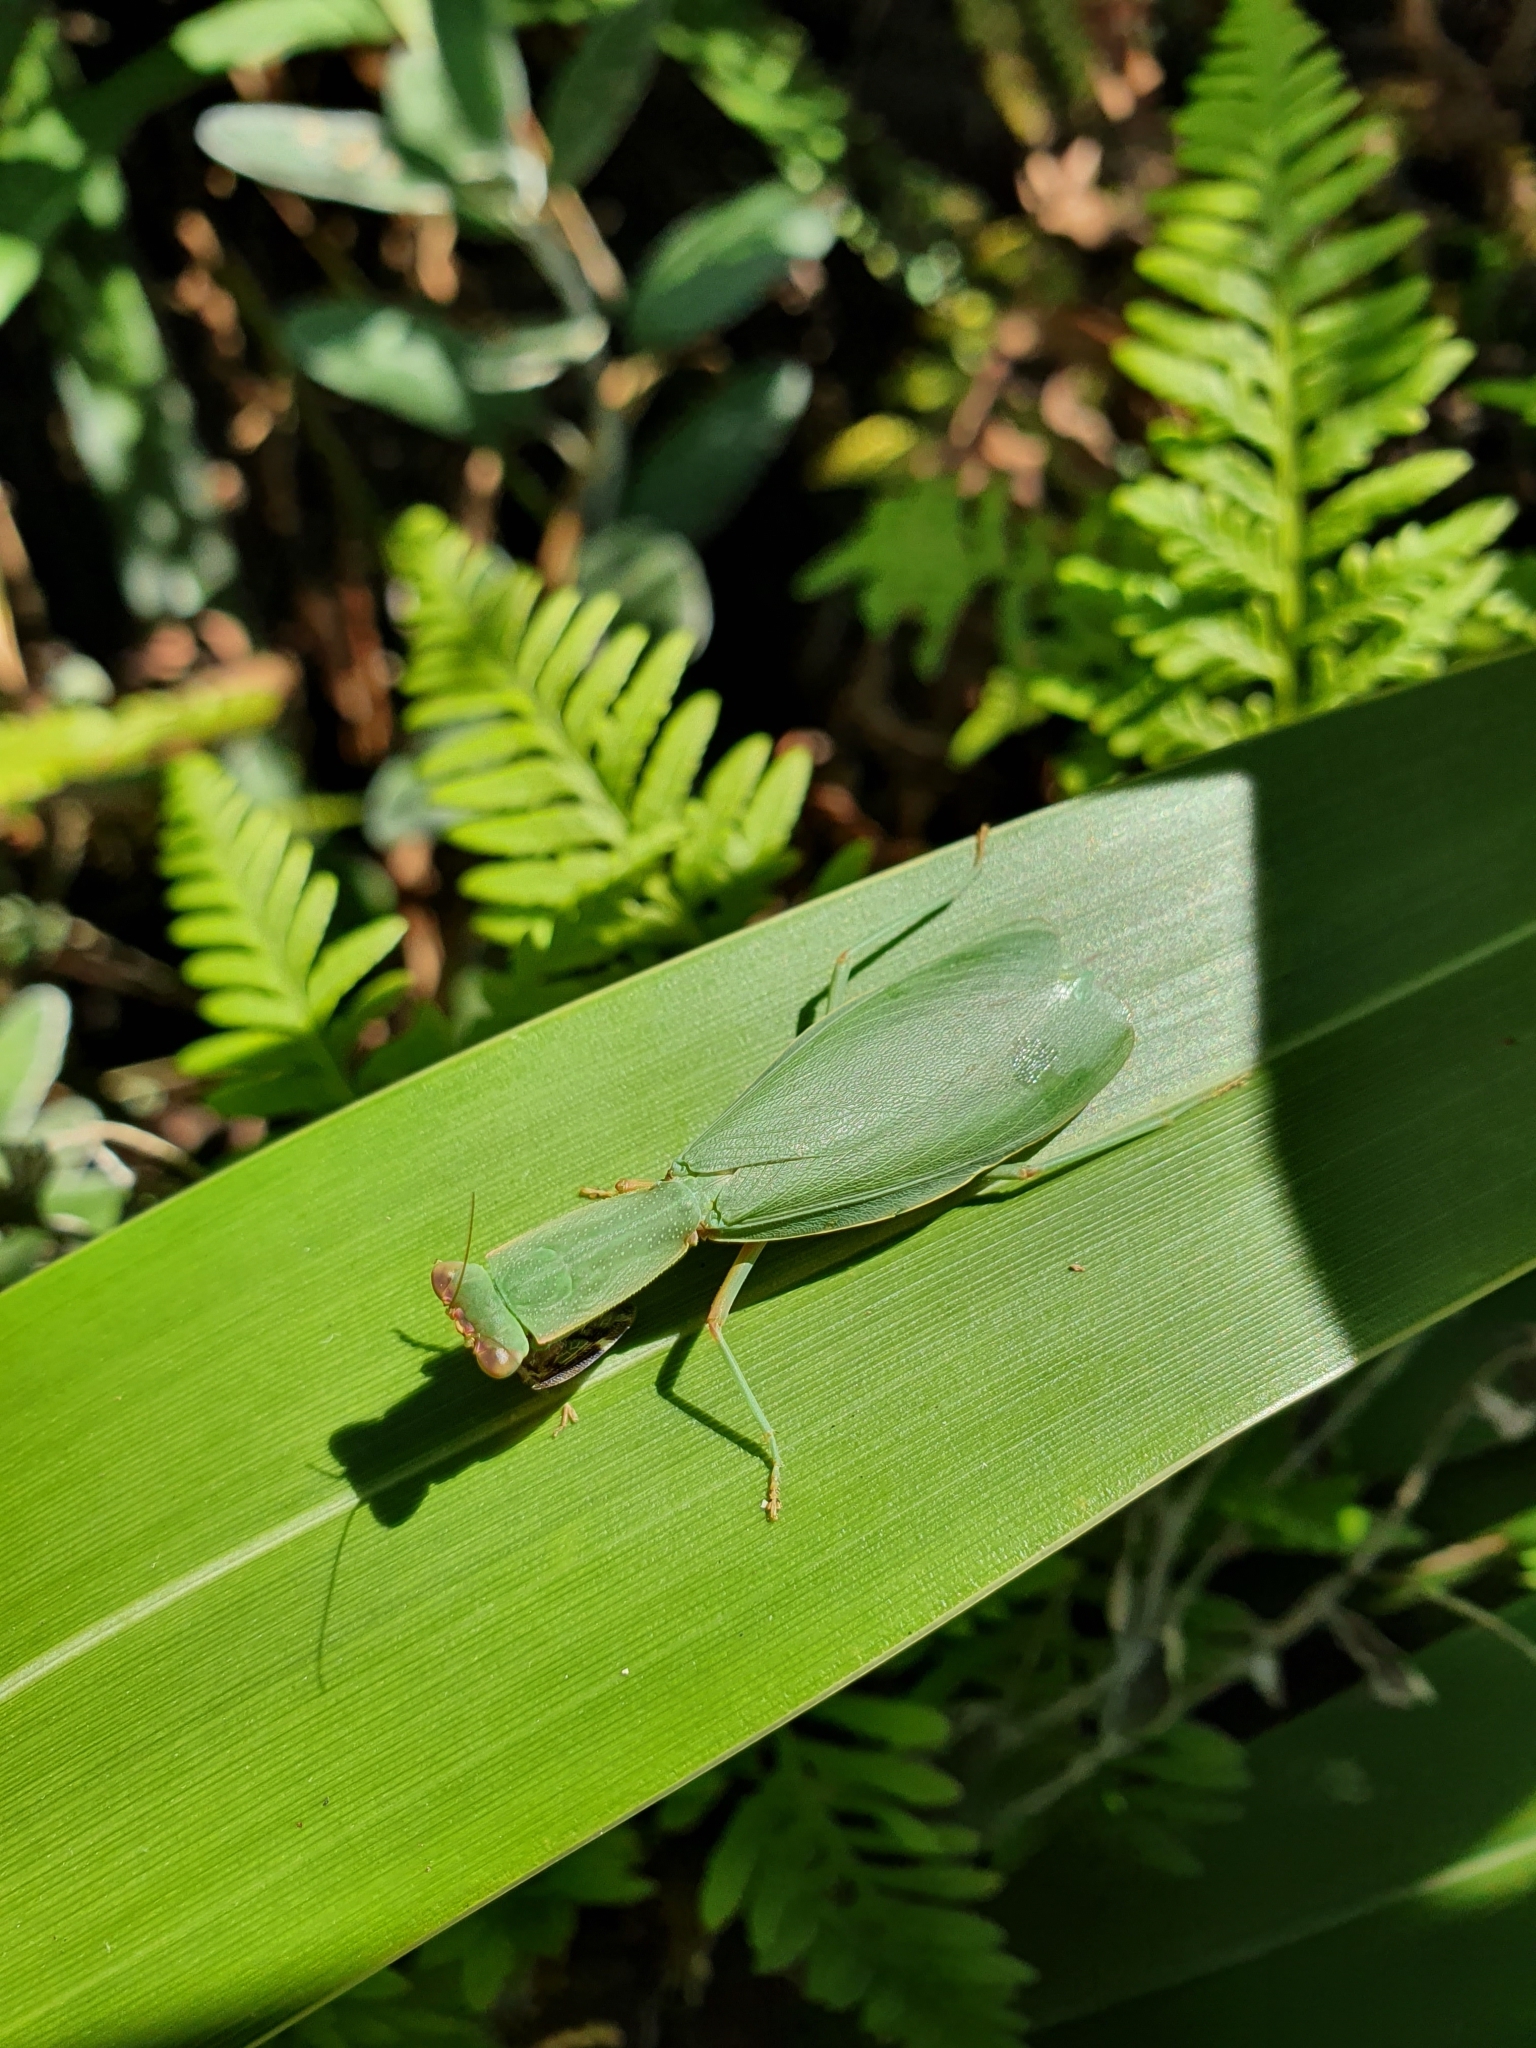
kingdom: Animalia
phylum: Arthropoda
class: Insecta
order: Mantodea
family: Mantidae
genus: Orthodera
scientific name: Orthodera novaezealandiae
